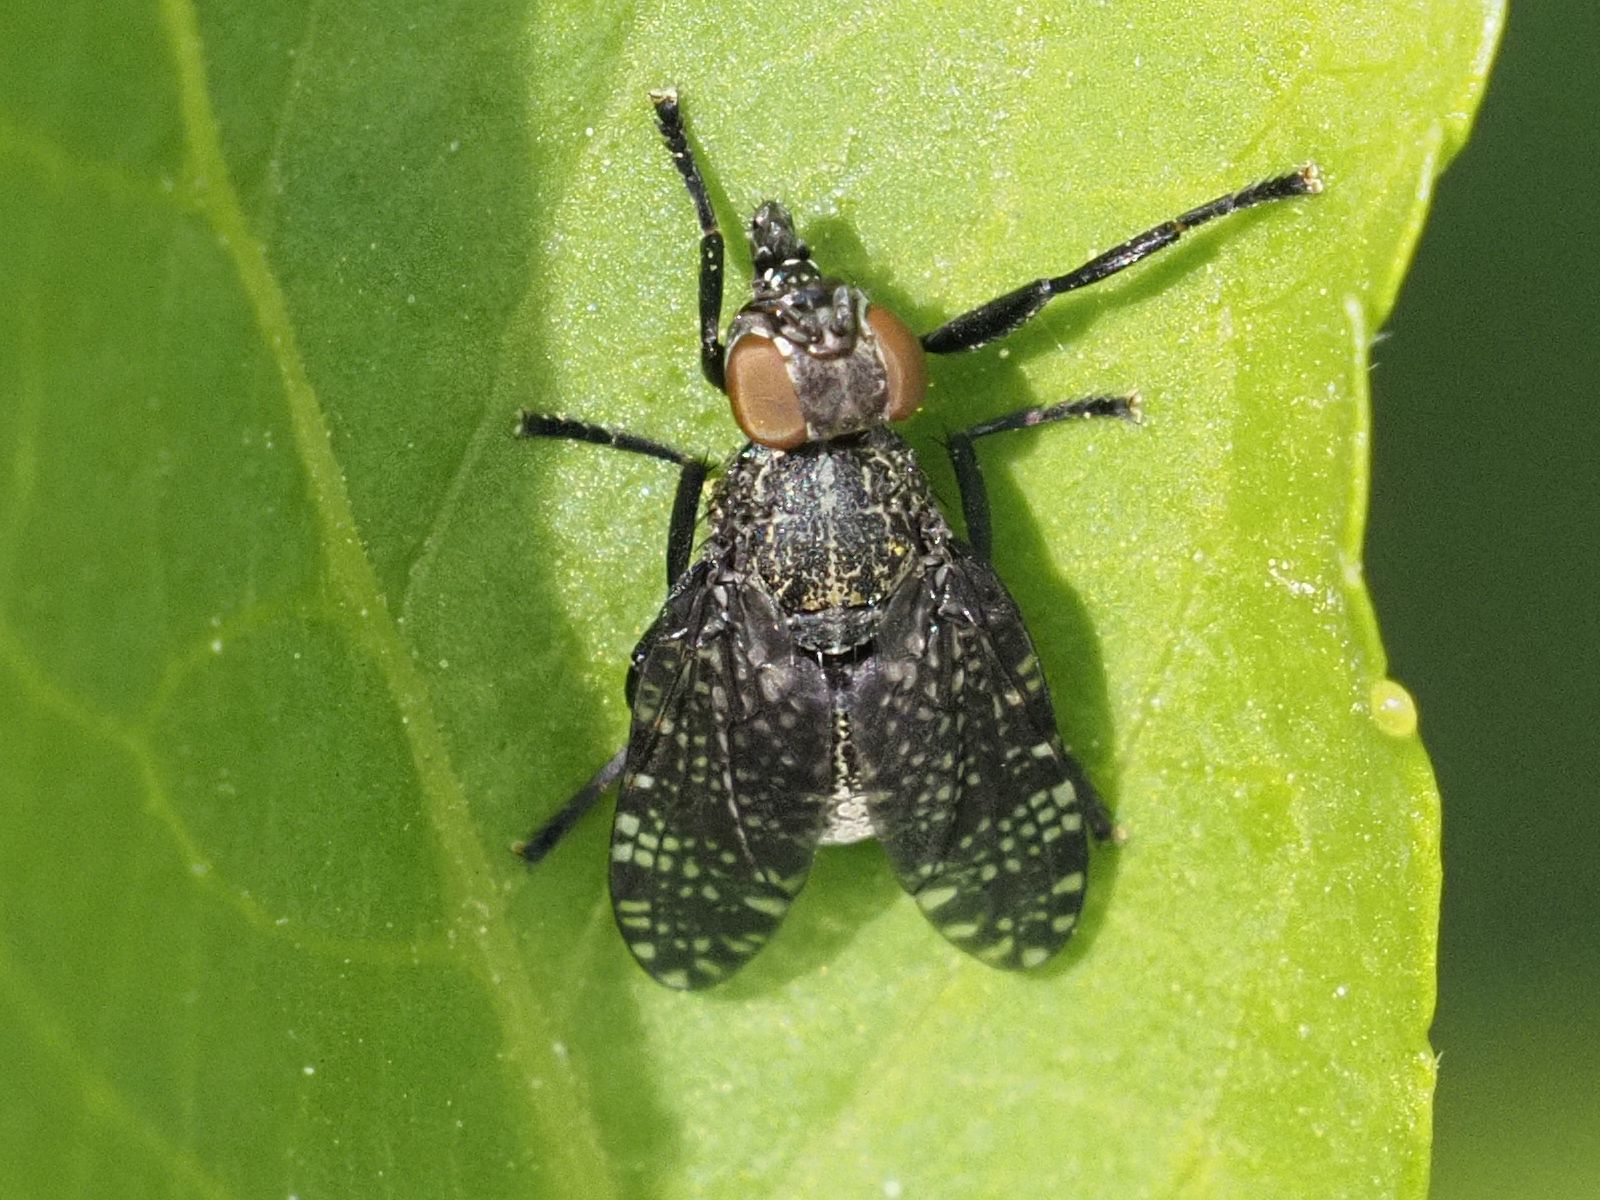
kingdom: Animalia
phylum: Arthropoda
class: Insecta
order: Diptera
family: Platystomatidae
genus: Platystoma
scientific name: Platystoma seminationis
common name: Fly
